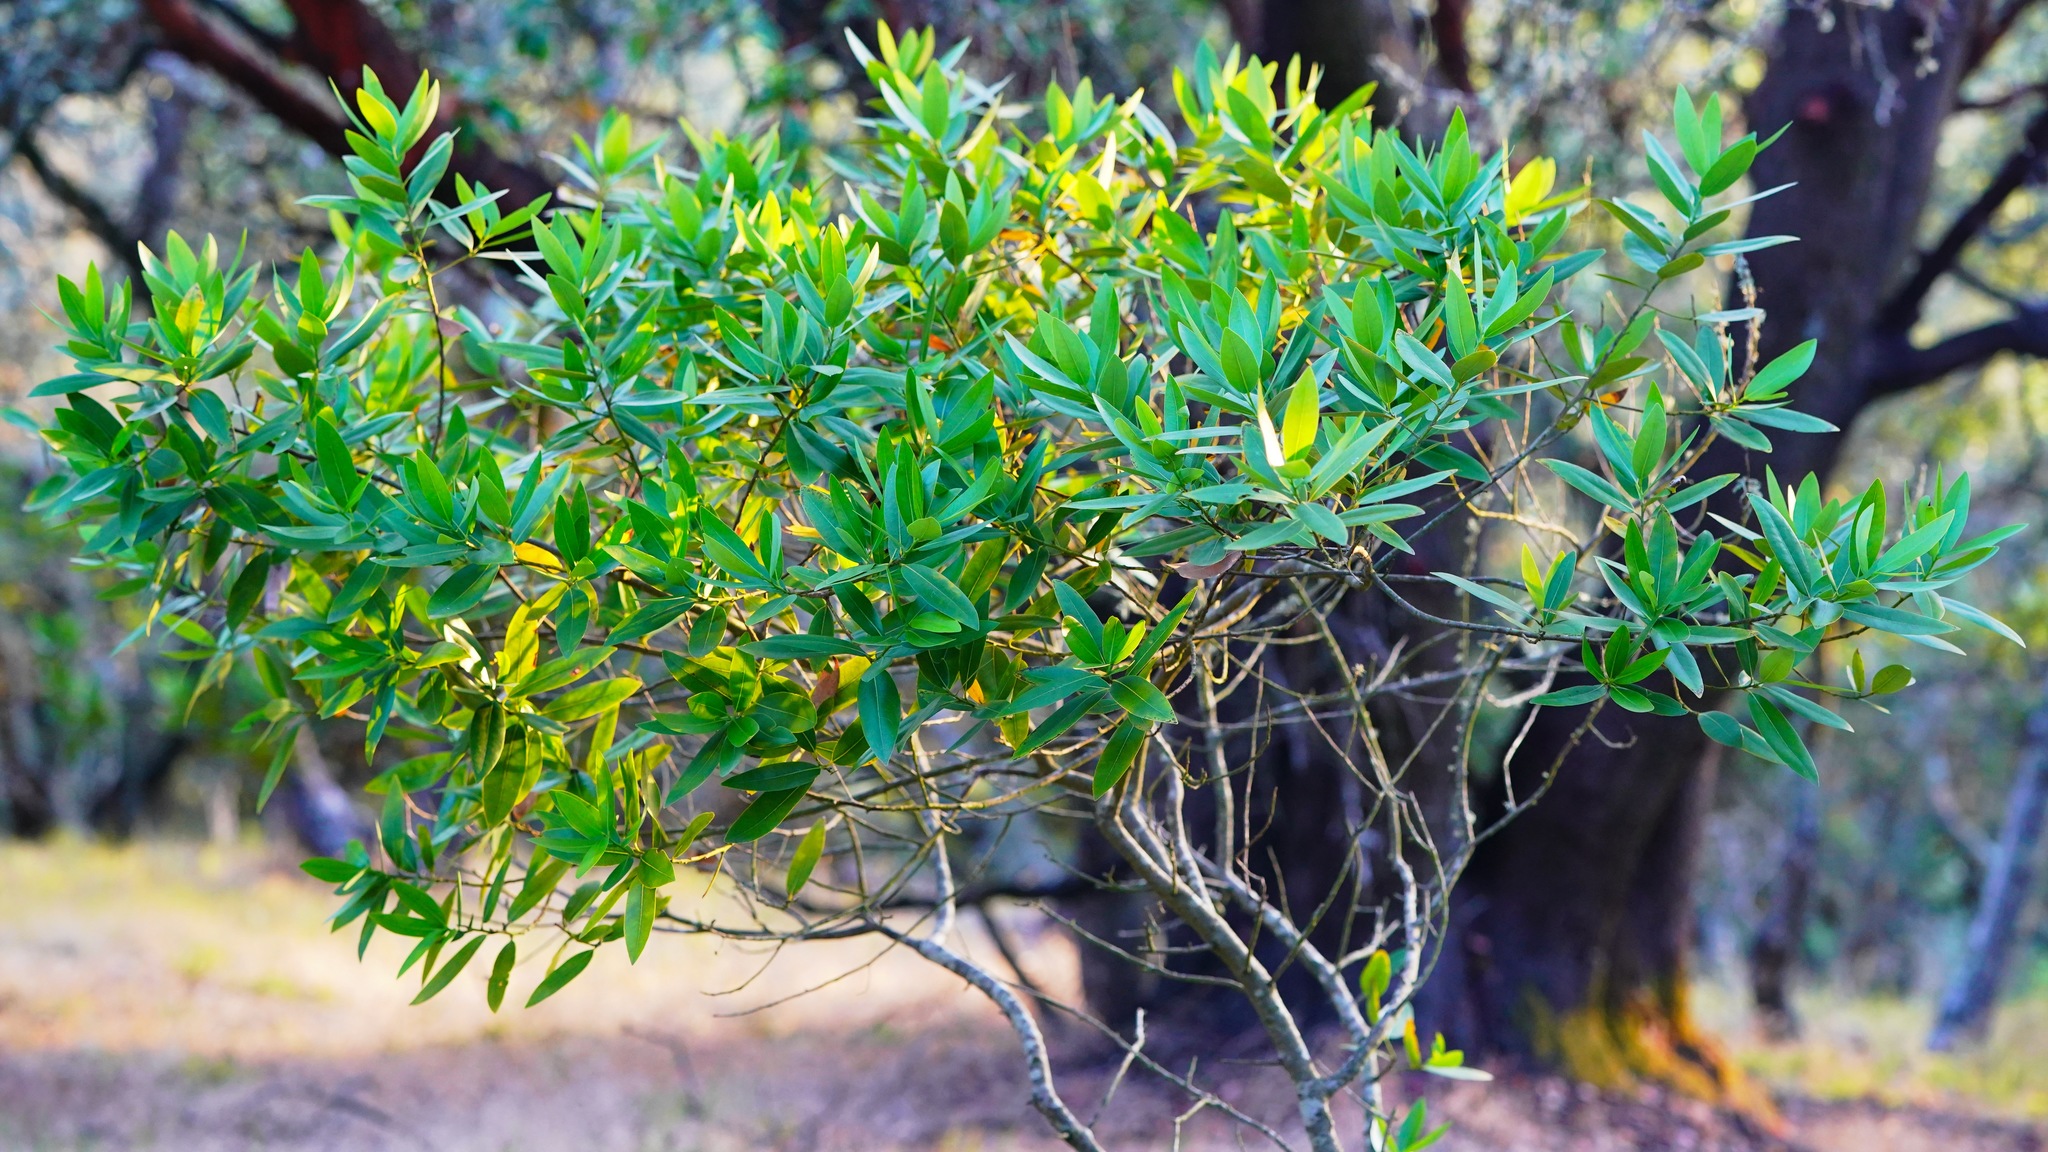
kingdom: Plantae
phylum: Tracheophyta
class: Magnoliopsida
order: Laurales
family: Lauraceae
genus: Umbellularia
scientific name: Umbellularia californica
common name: California bay
